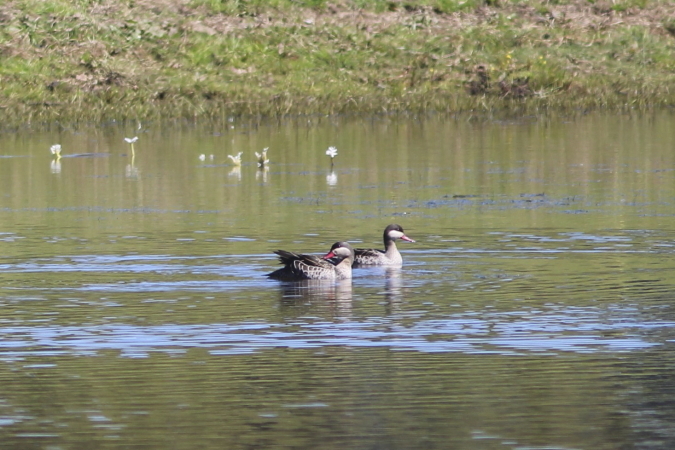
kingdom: Animalia
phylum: Chordata
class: Aves
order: Anseriformes
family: Anatidae
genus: Anas
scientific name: Anas erythrorhyncha
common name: Red-billed teal
